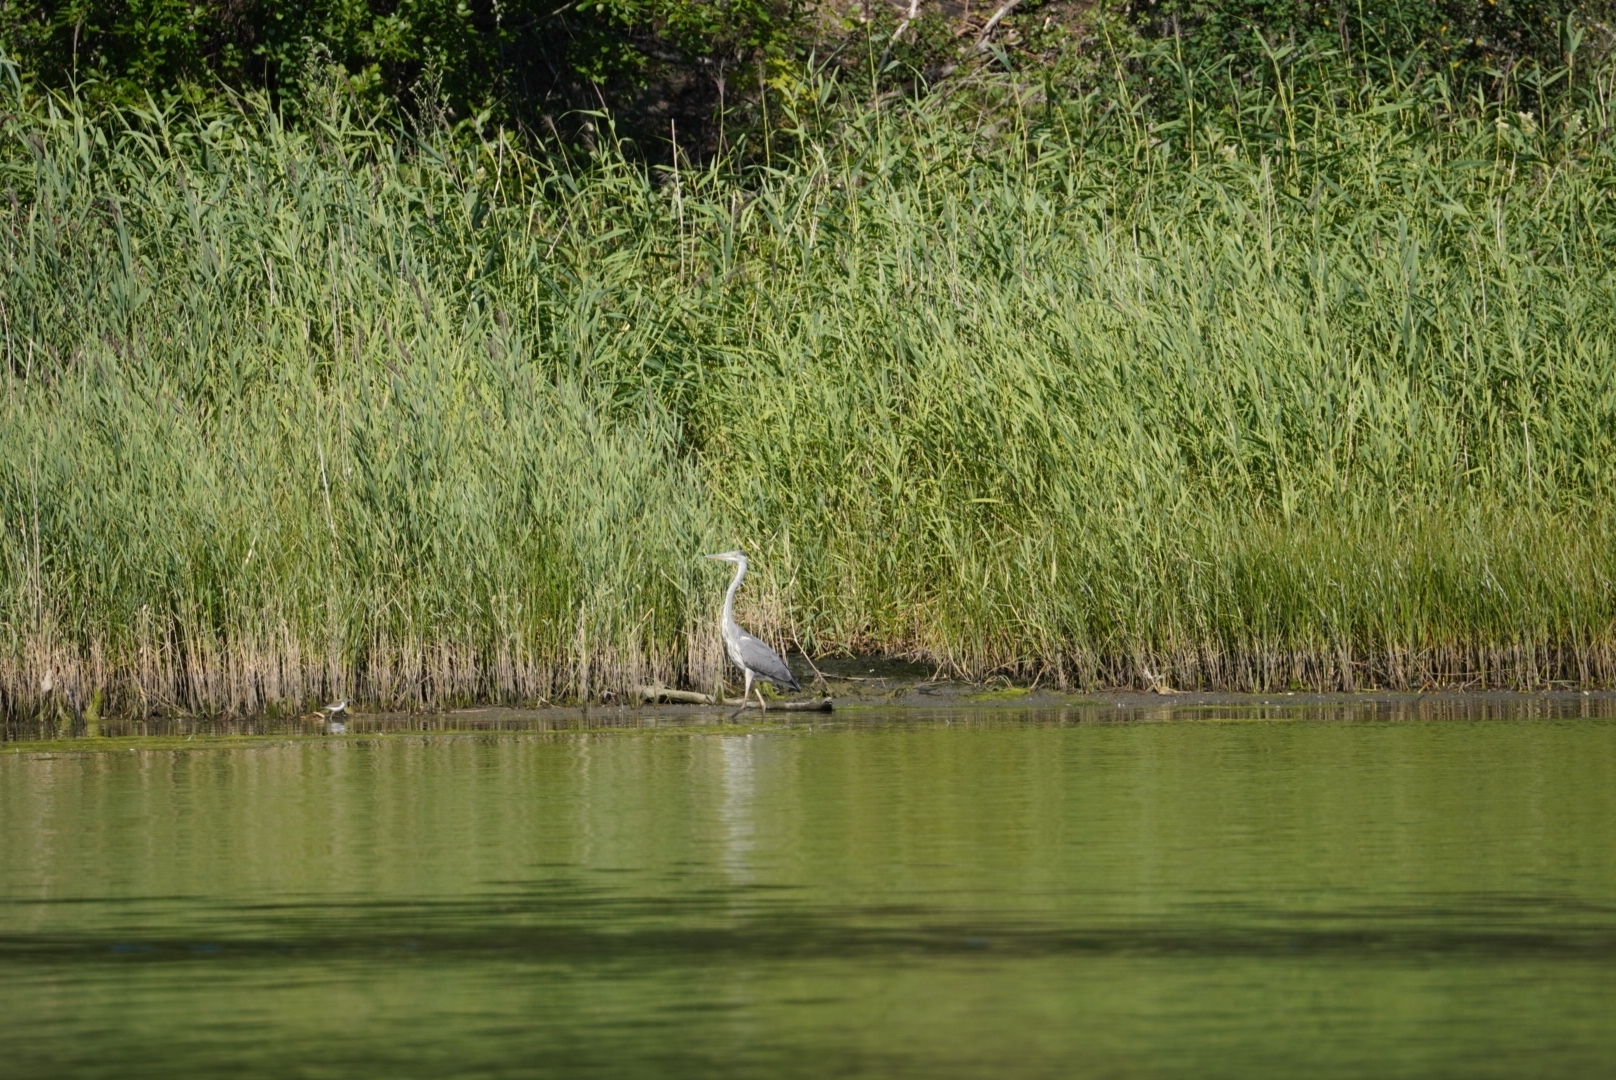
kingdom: Animalia
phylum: Chordata
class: Aves
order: Pelecaniformes
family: Ardeidae
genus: Ardea
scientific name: Ardea cinerea
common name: Grey heron
